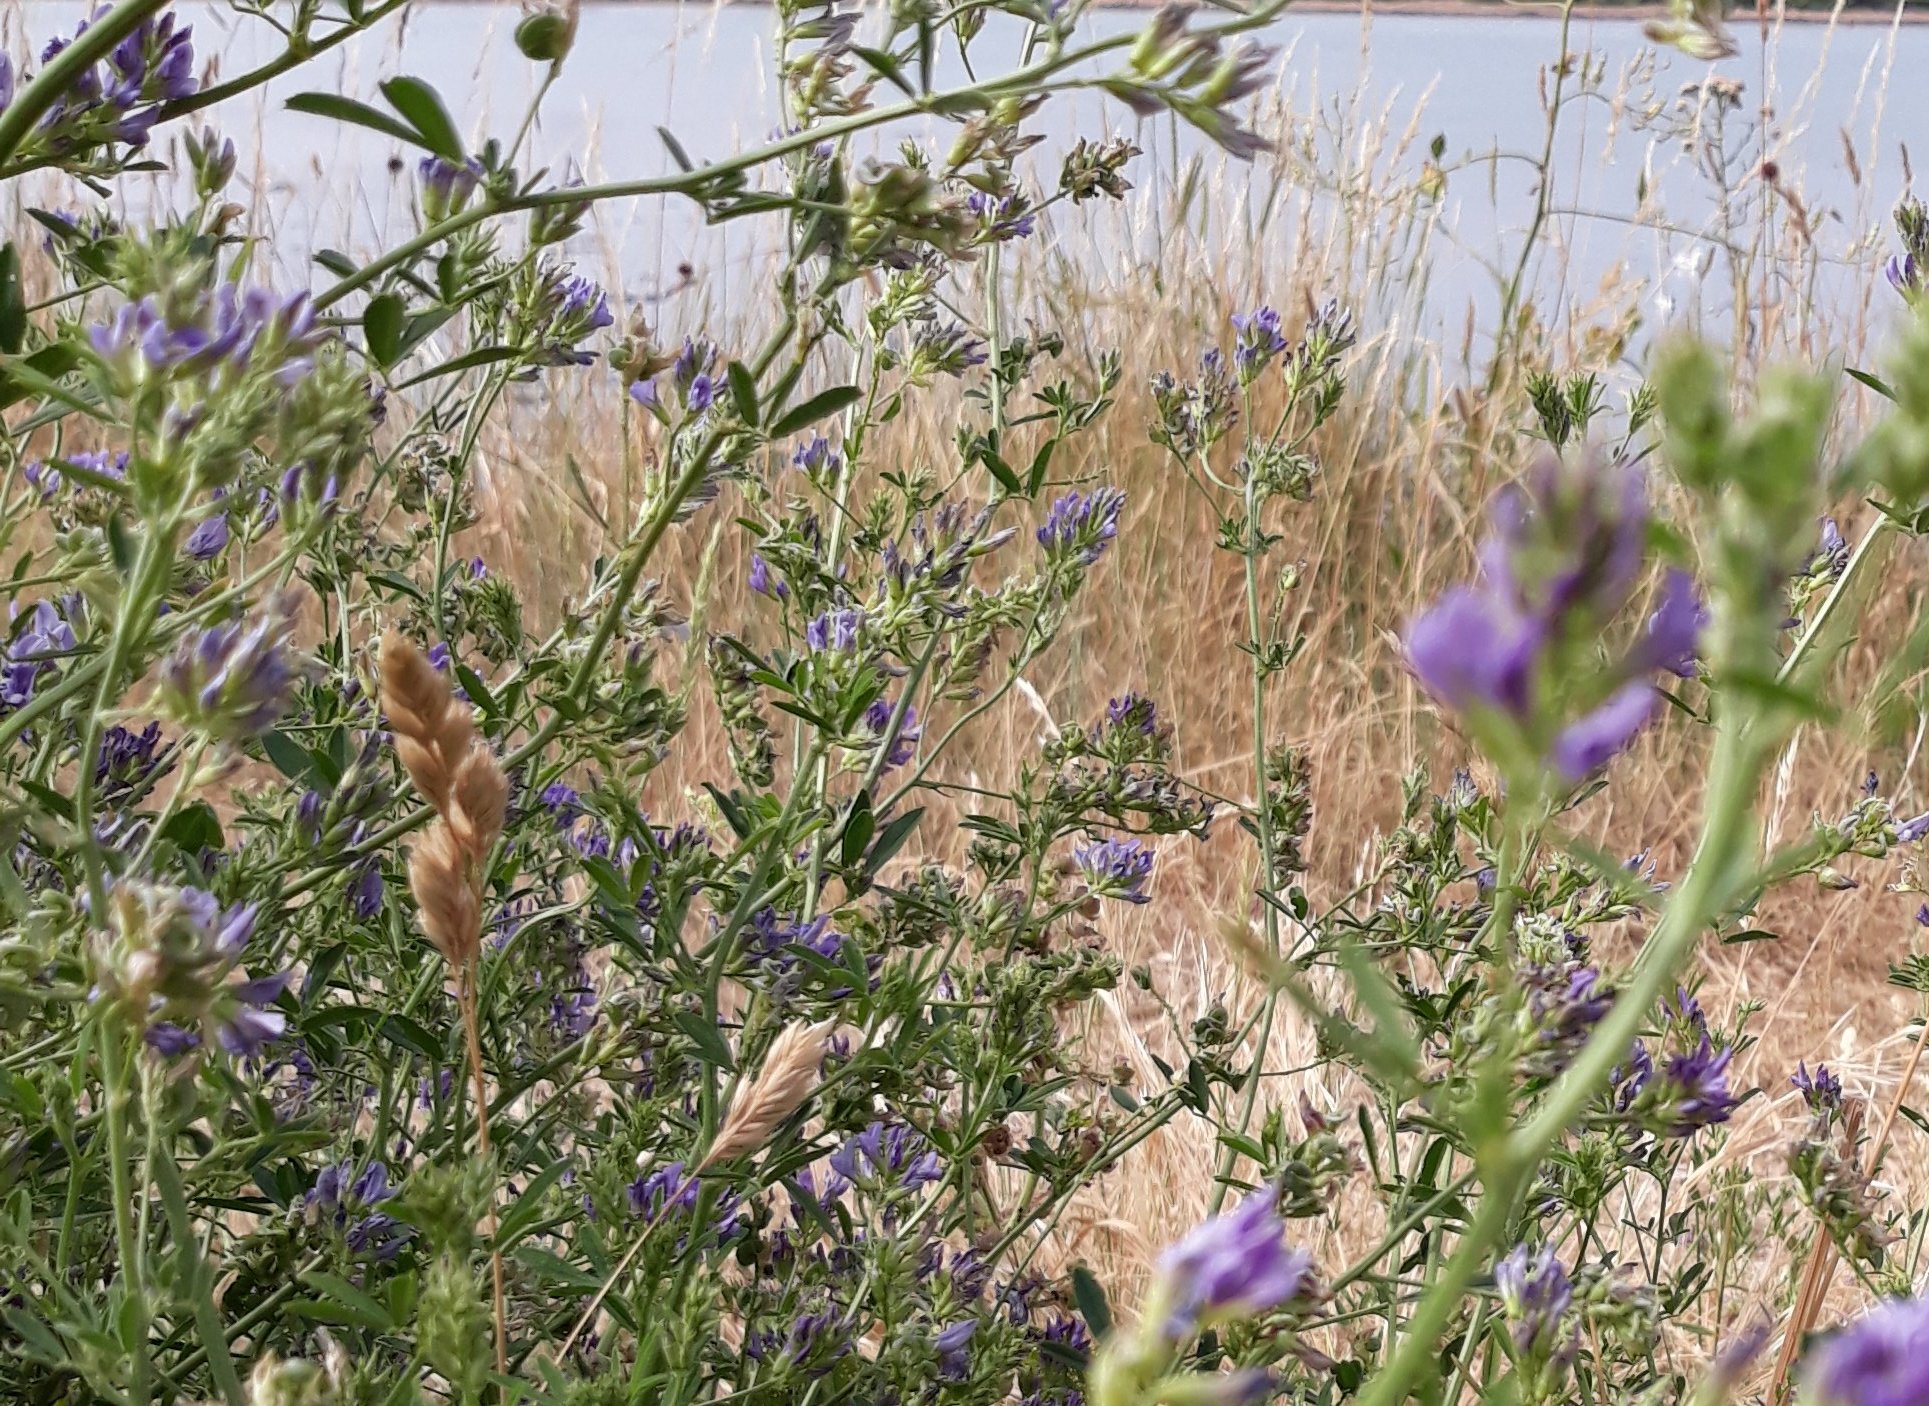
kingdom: Plantae
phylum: Tracheophyta
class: Magnoliopsida
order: Fabales
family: Fabaceae
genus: Medicago
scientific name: Medicago sativa
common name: Alfalfa
